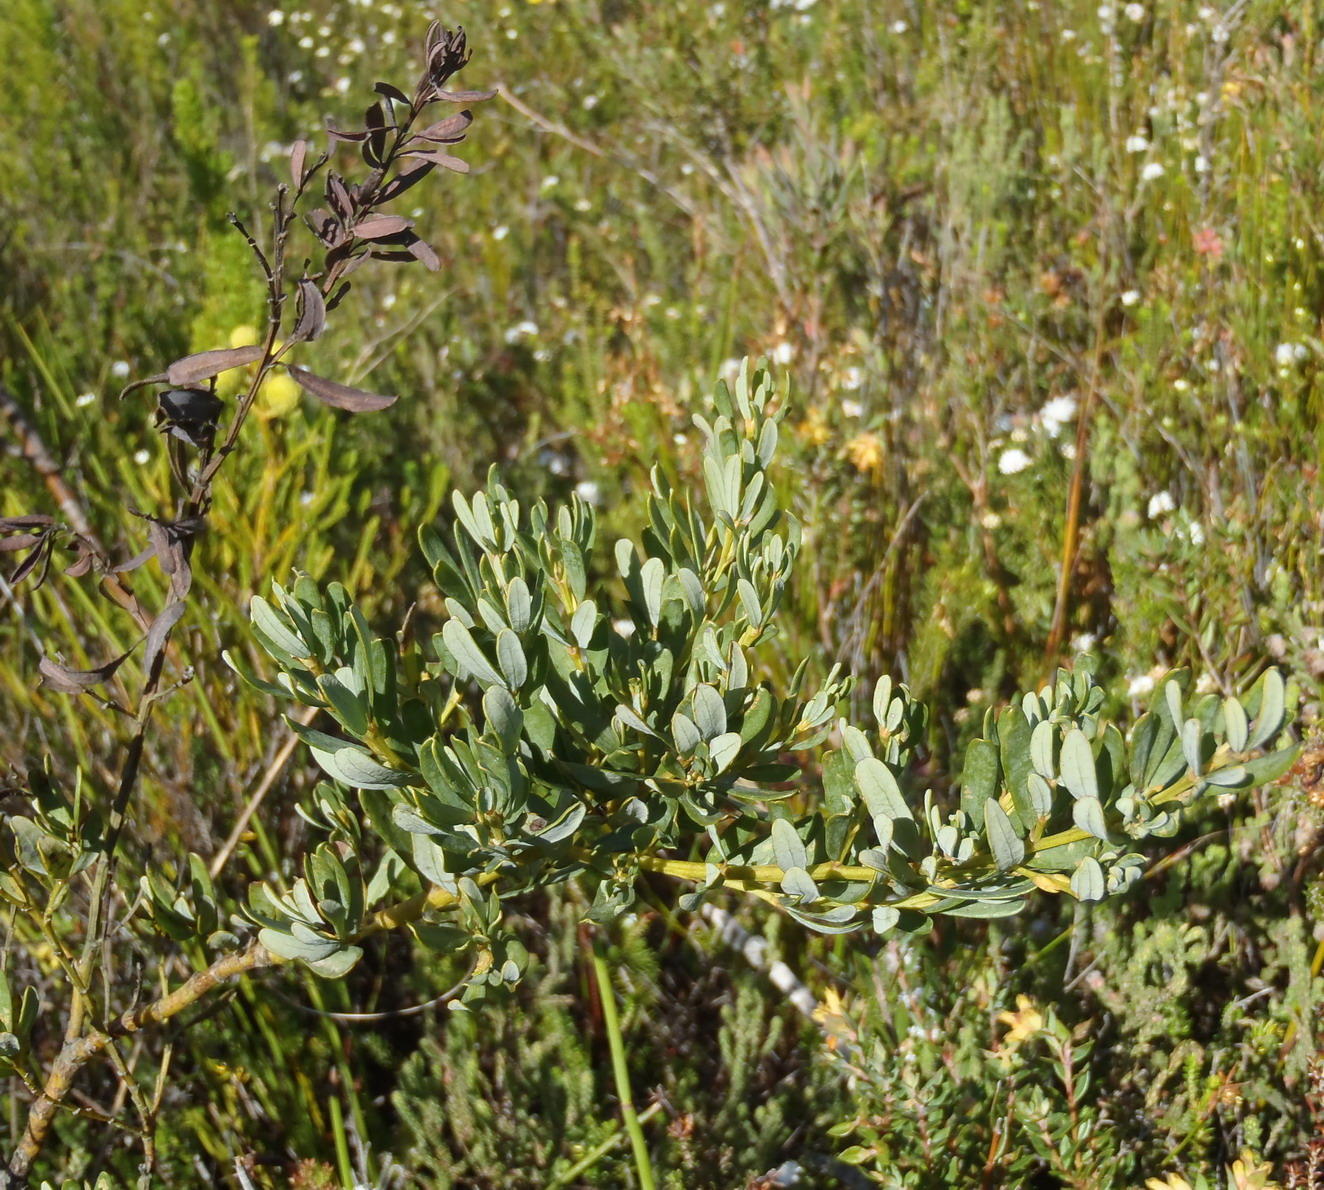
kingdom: Plantae
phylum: Tracheophyta
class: Magnoliopsida
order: Fabales
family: Fabaceae
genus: Cyclopia
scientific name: Cyclopia subternata
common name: Honeybush tea
